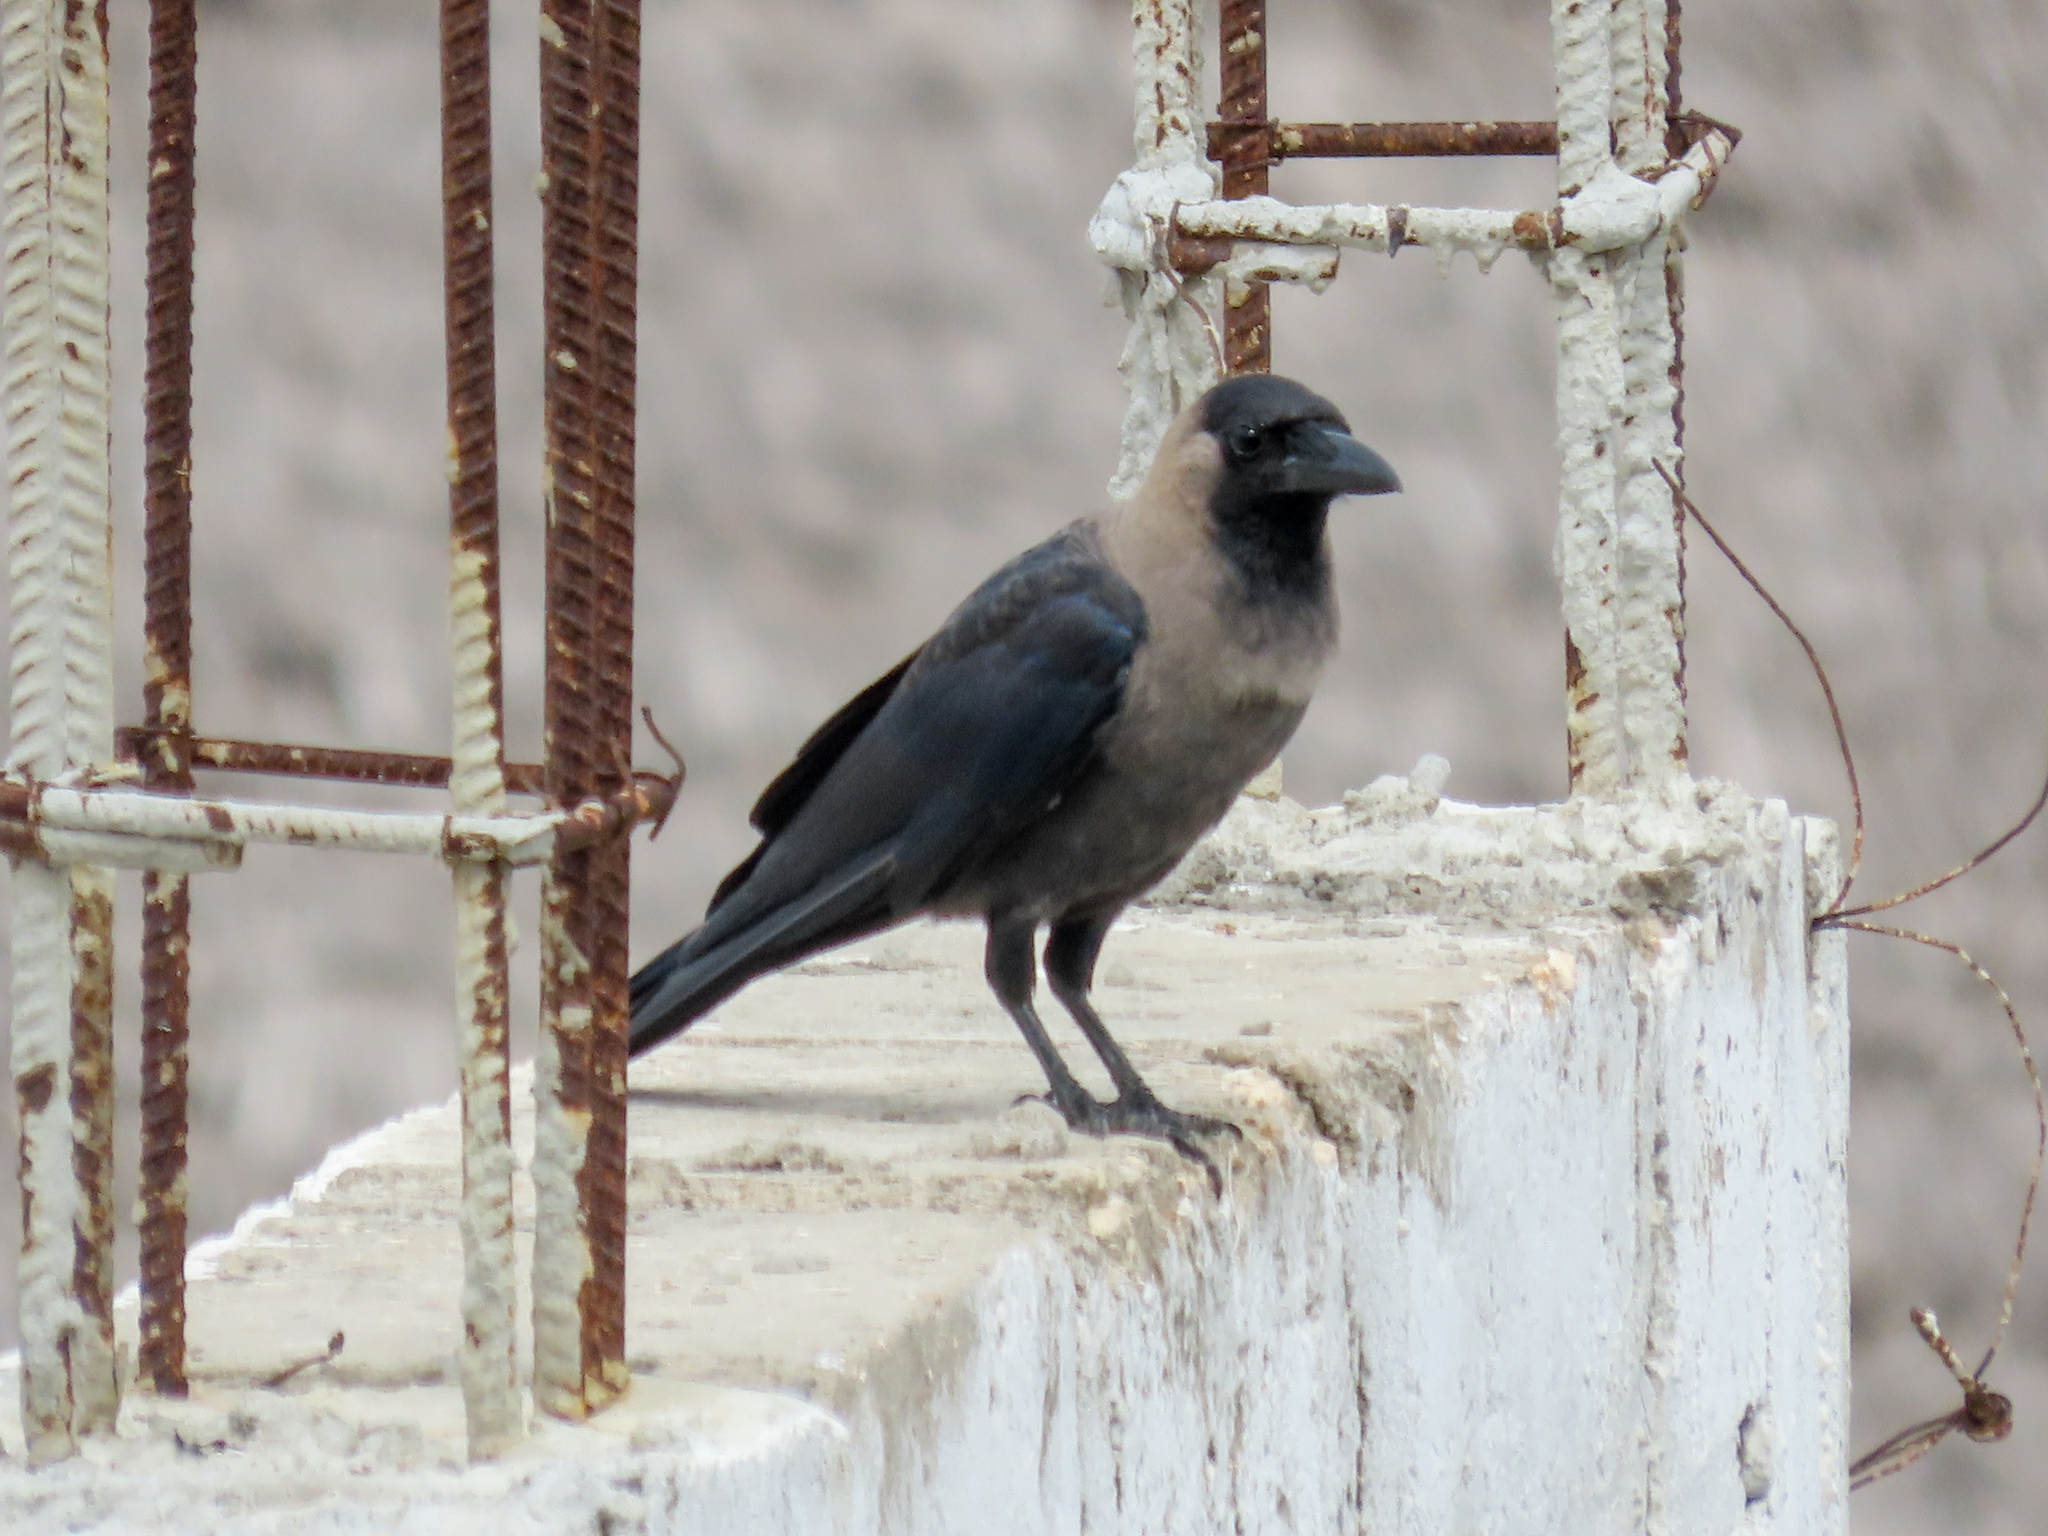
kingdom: Animalia
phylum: Chordata
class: Aves
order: Passeriformes
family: Corvidae
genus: Corvus
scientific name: Corvus splendens
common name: House crow
